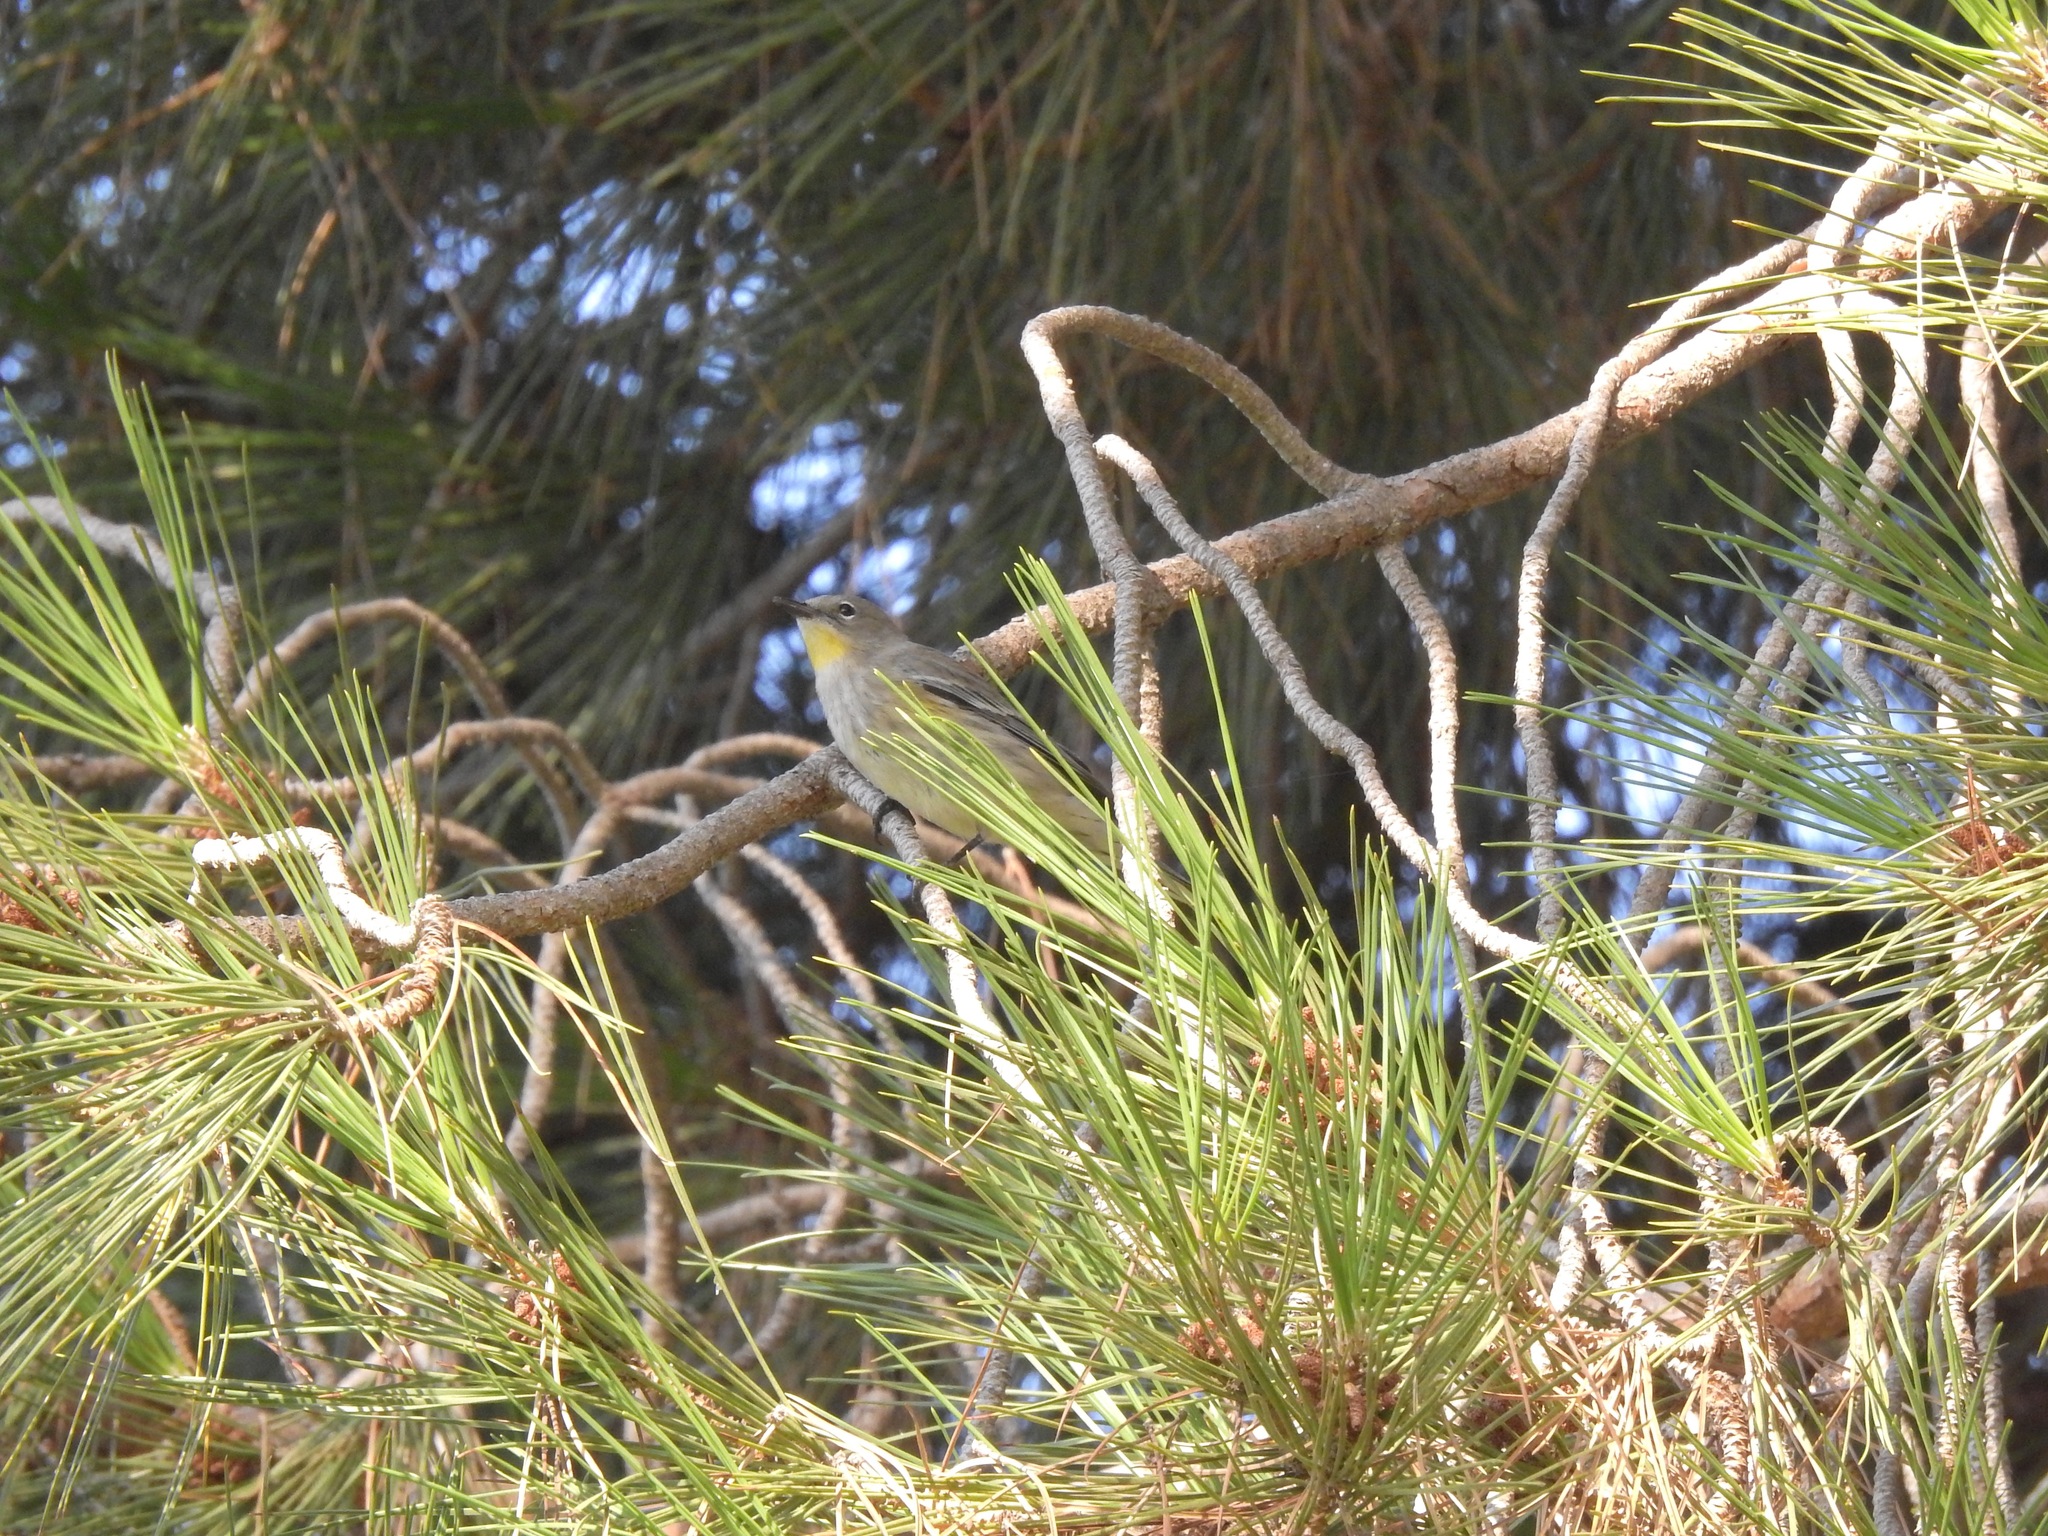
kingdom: Animalia
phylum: Chordata
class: Aves
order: Passeriformes
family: Parulidae
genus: Setophaga
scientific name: Setophaga auduboni
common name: Audubon's warbler
